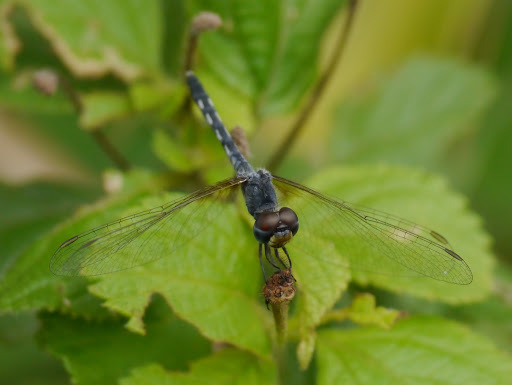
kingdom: Animalia
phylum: Arthropoda
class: Insecta
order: Odonata
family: Libellulidae
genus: Diplacodes
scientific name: Diplacodes deminuta
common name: Little percher
